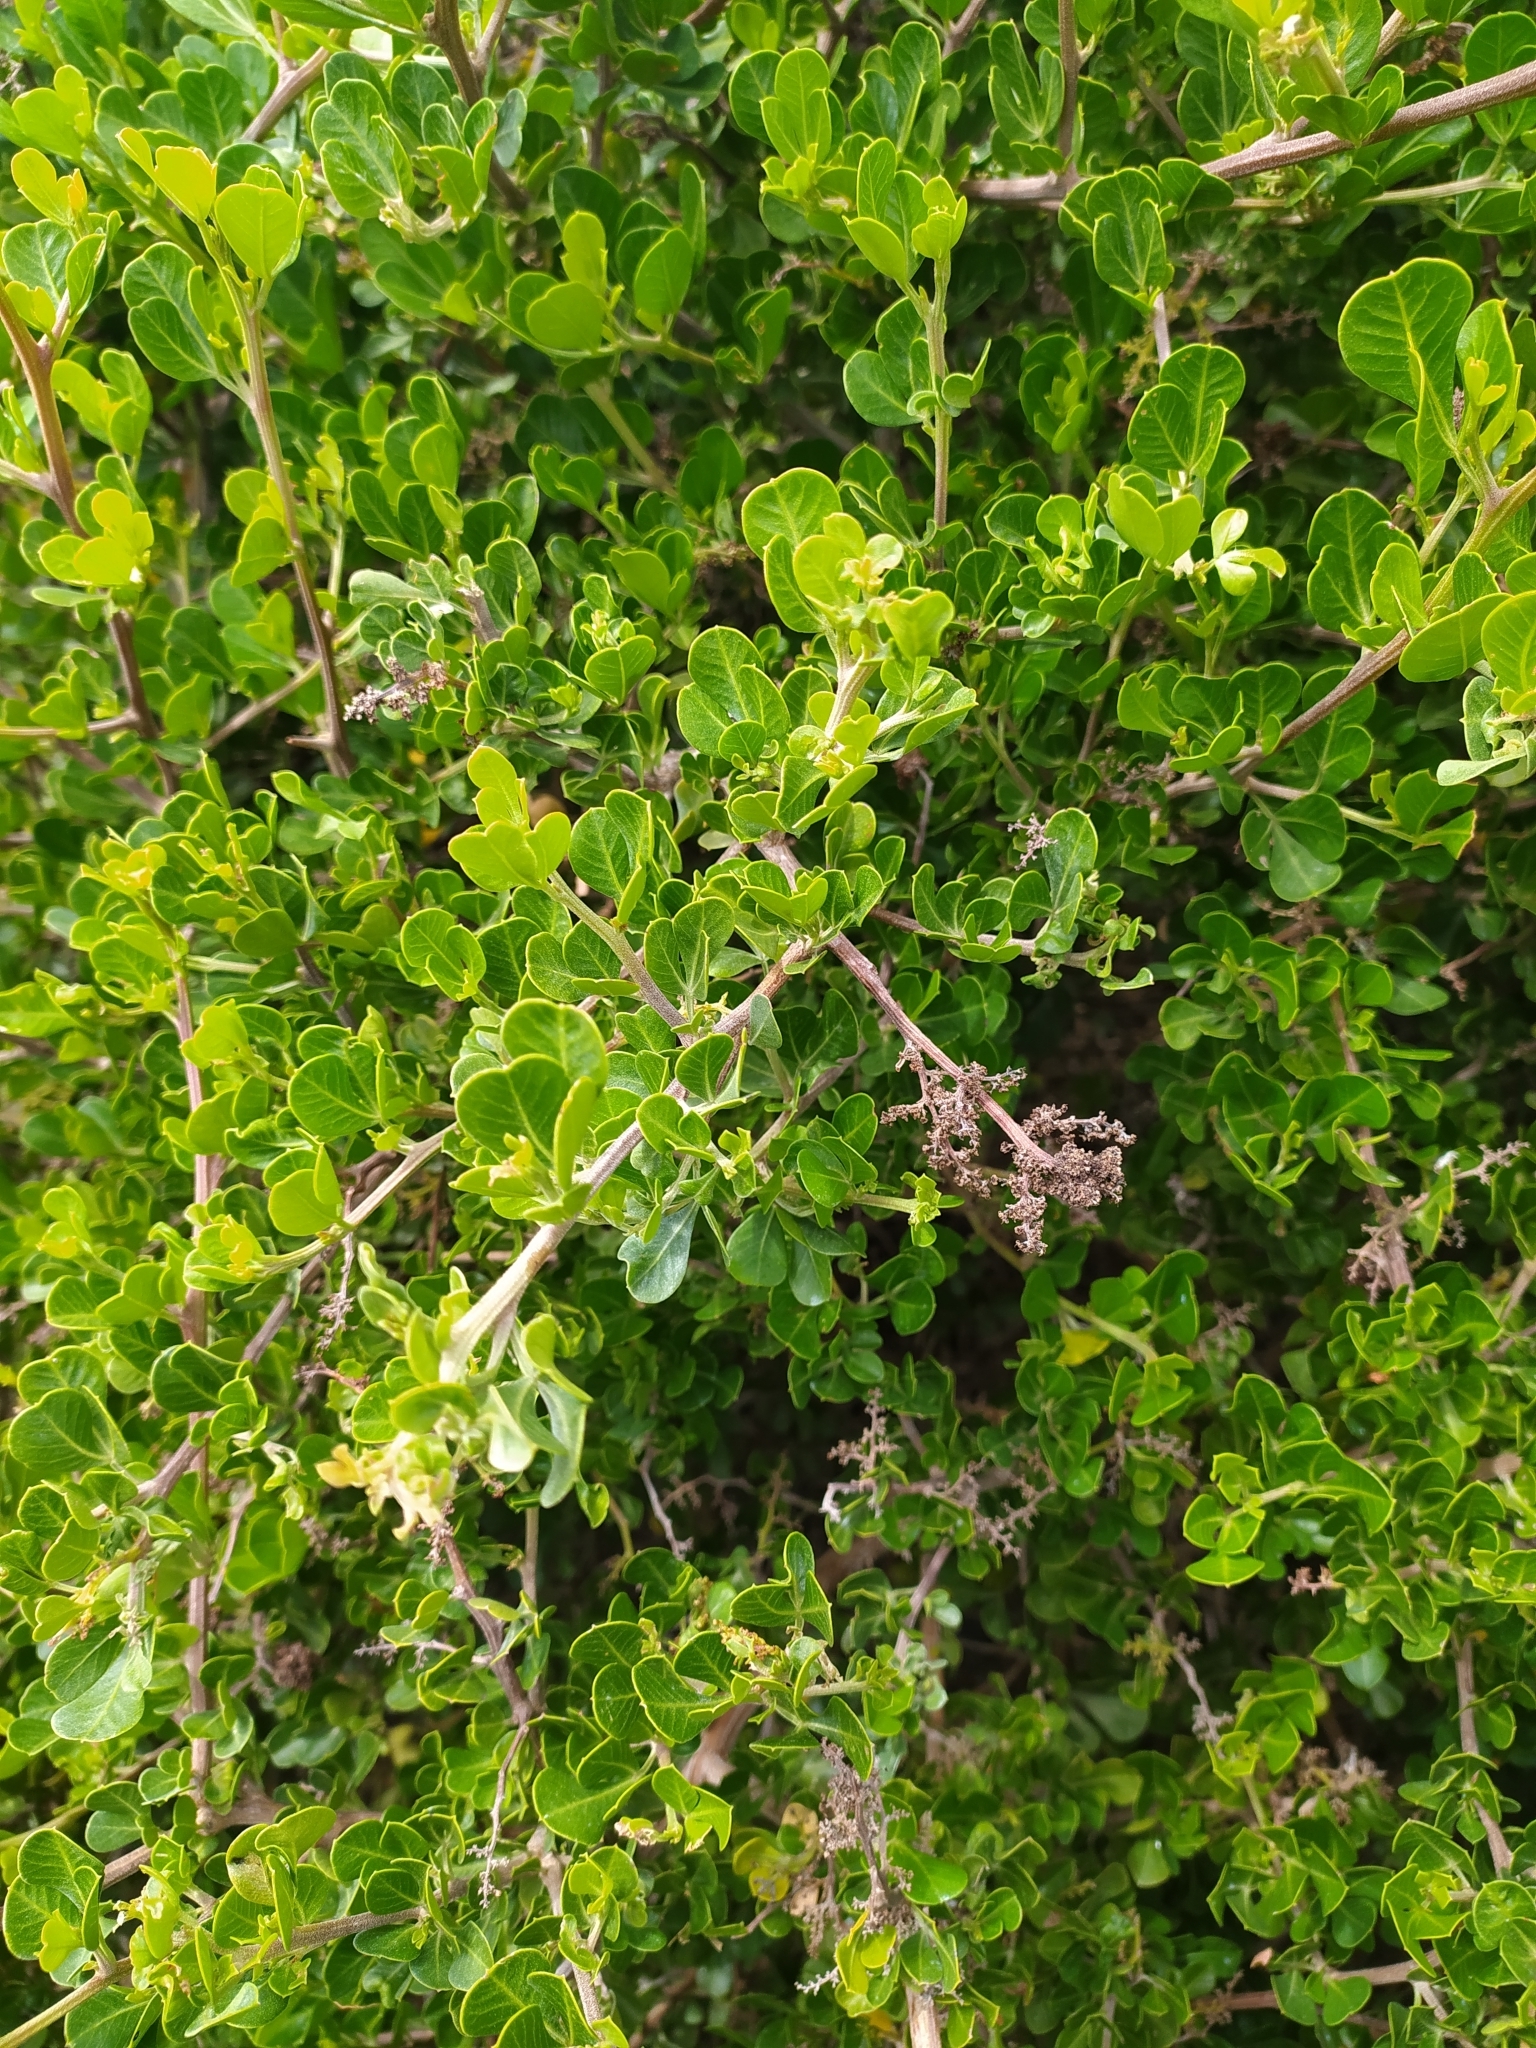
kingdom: Plantae
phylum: Tracheophyta
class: Magnoliopsida
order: Sapindales
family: Anacardiaceae
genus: Searsia
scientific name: Searsia glauca
